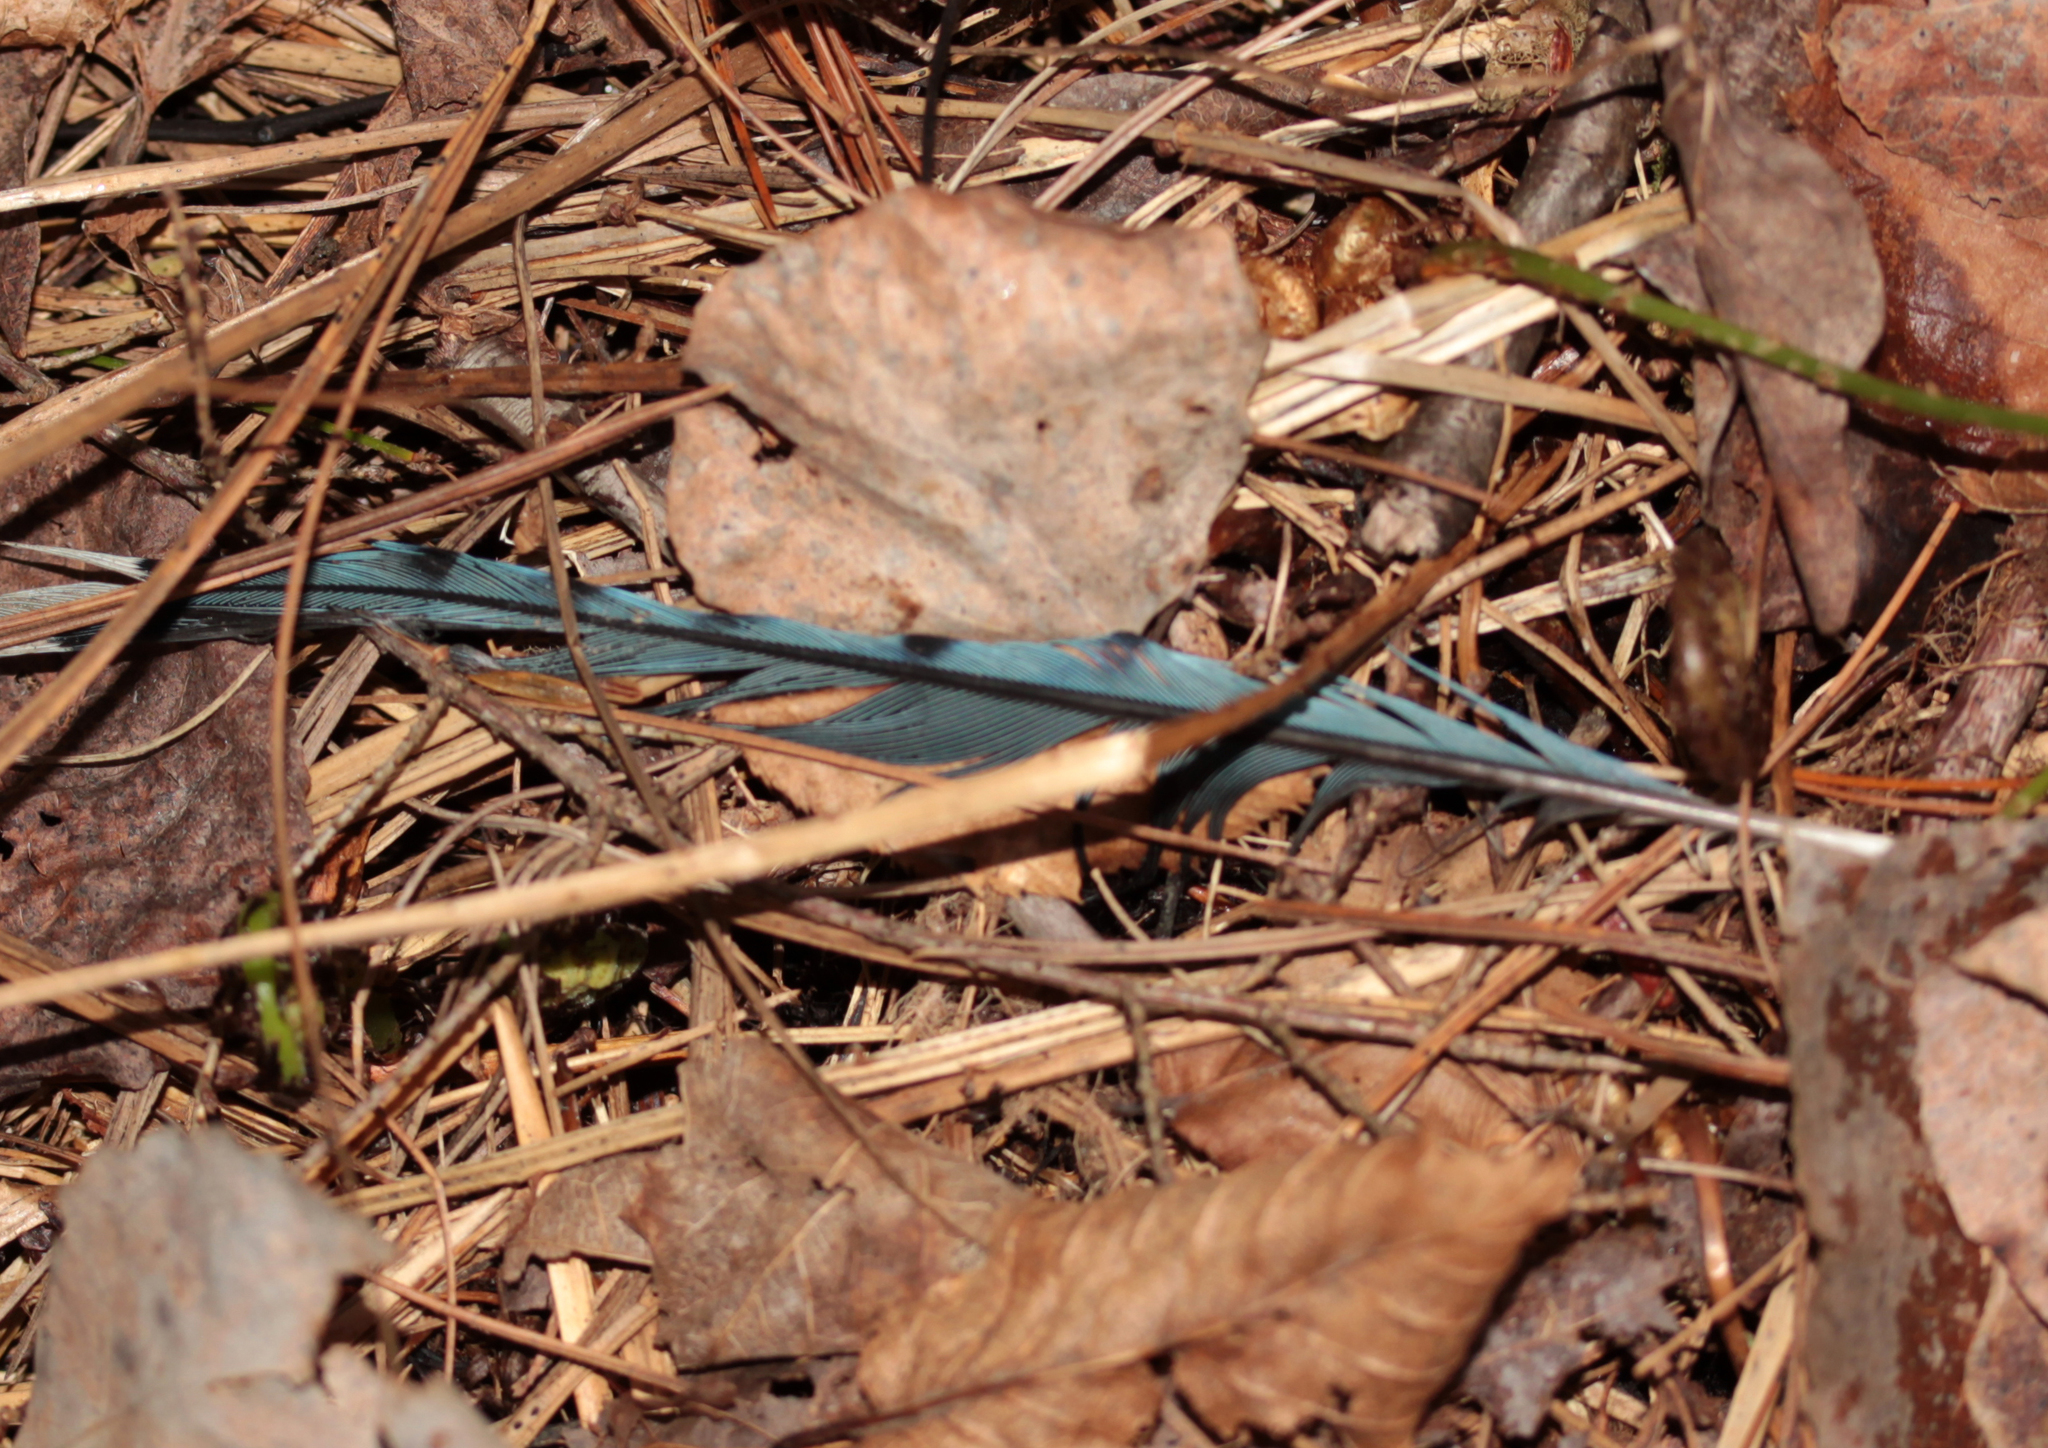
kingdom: Animalia
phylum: Chordata
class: Aves
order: Passeriformes
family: Corvidae
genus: Cyanocitta
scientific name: Cyanocitta cristata
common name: Blue jay
